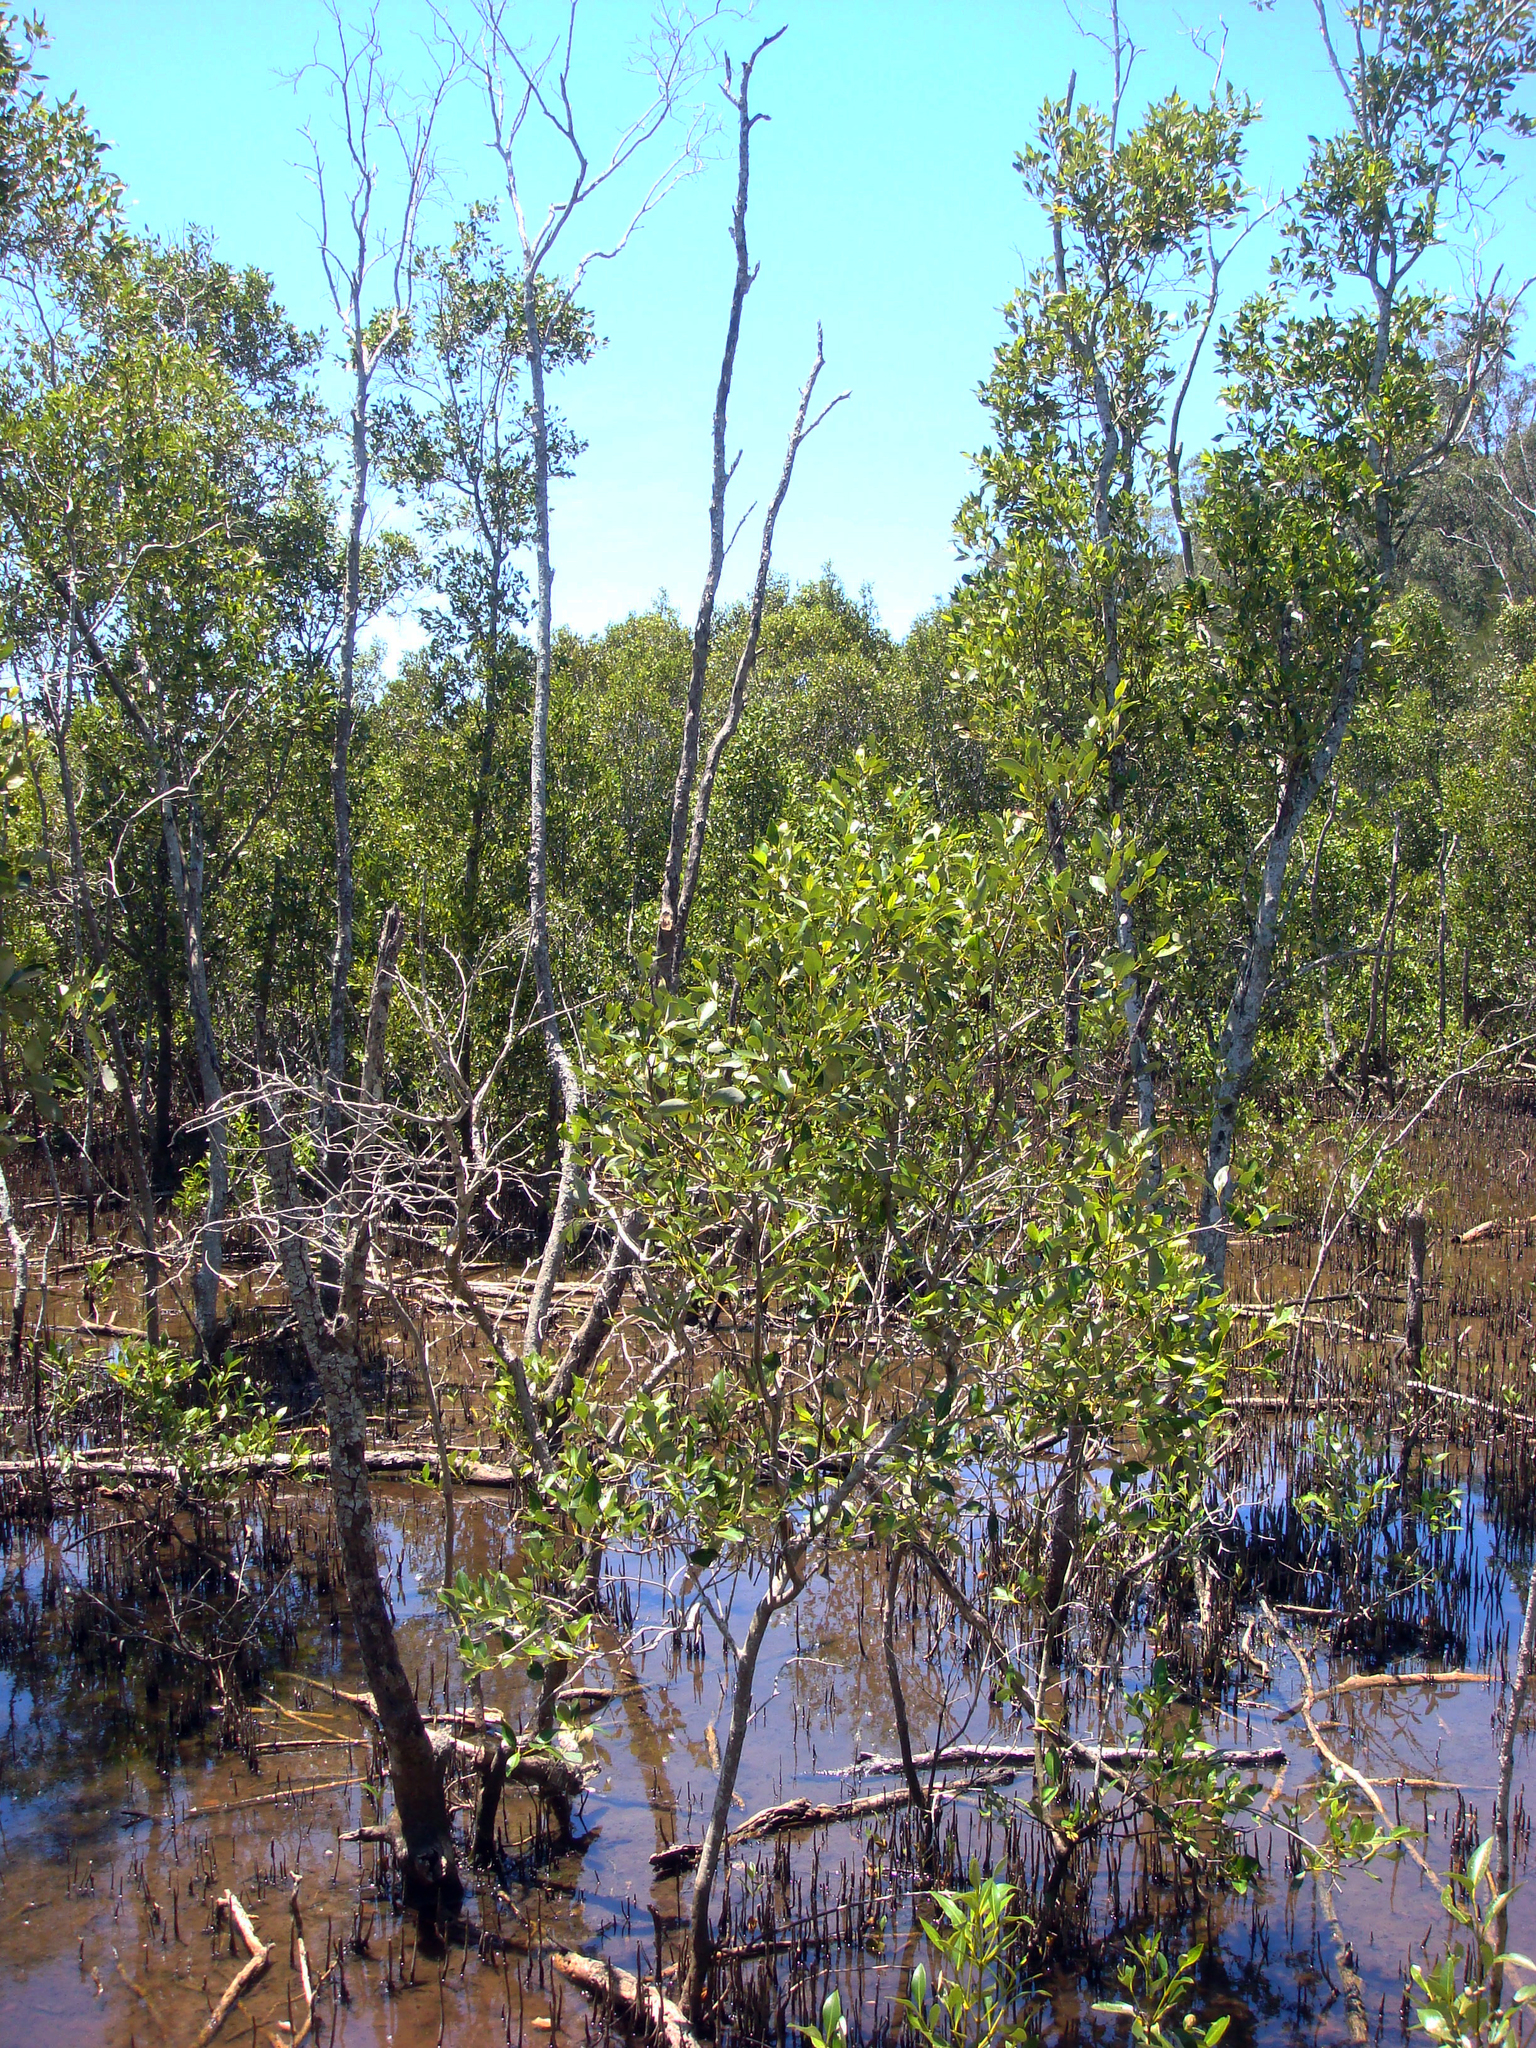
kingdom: Plantae
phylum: Tracheophyta
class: Magnoliopsida
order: Lamiales
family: Acanthaceae
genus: Avicennia
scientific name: Avicennia marina
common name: Gray mangrove
